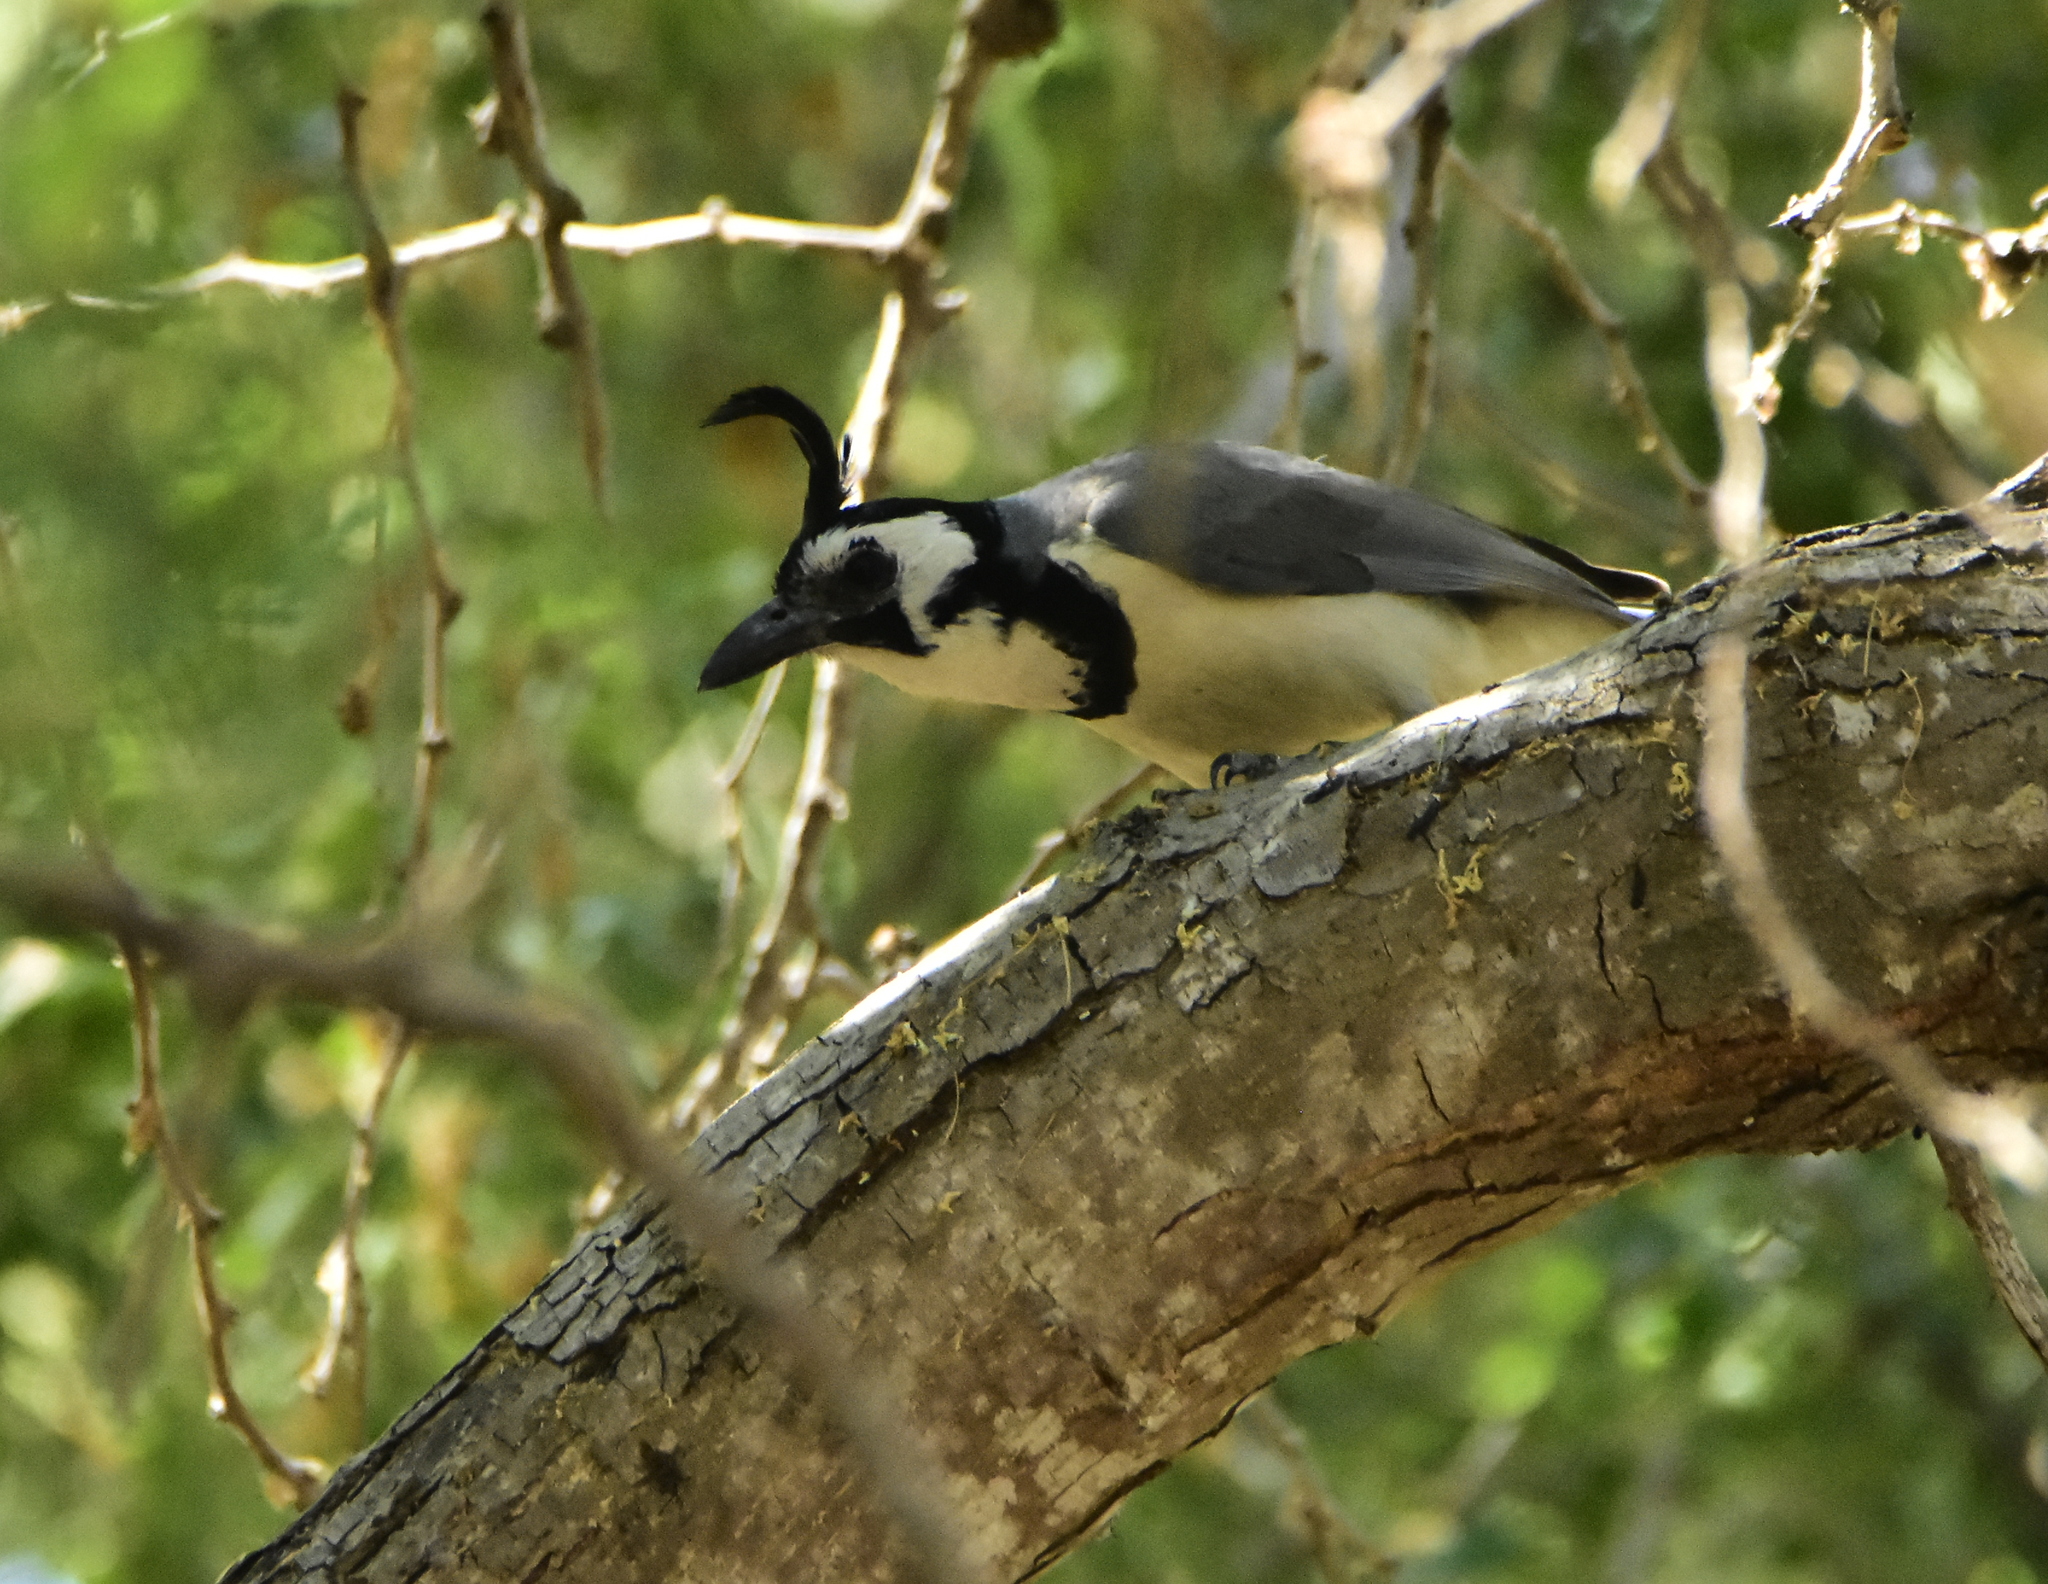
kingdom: Animalia
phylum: Chordata
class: Aves
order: Passeriformes
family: Corvidae
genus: Calocitta
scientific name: Calocitta formosa
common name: White-throated magpie-jay
